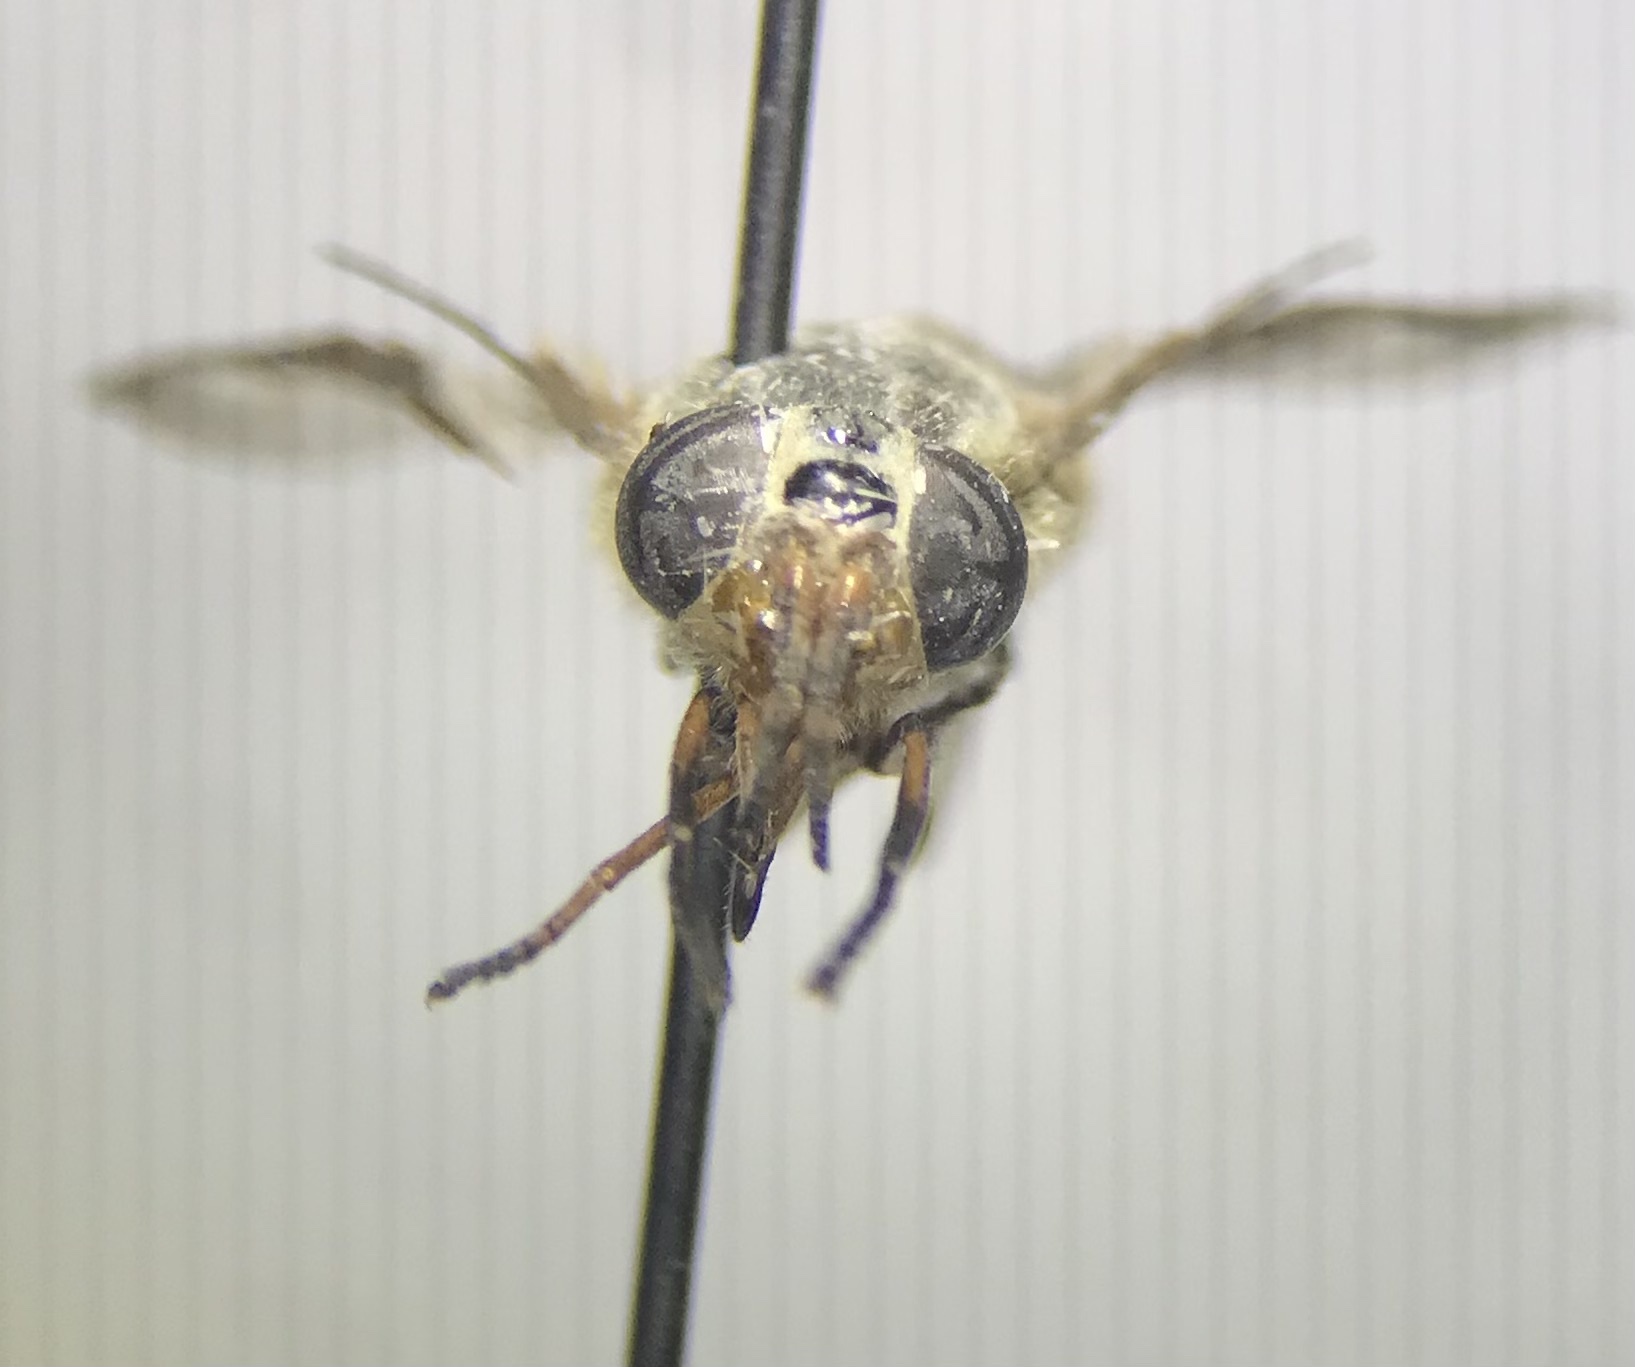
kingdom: Animalia
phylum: Arthropoda
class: Insecta
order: Diptera
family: Tabanidae
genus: Chrysops
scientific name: Chrysops aestuans
